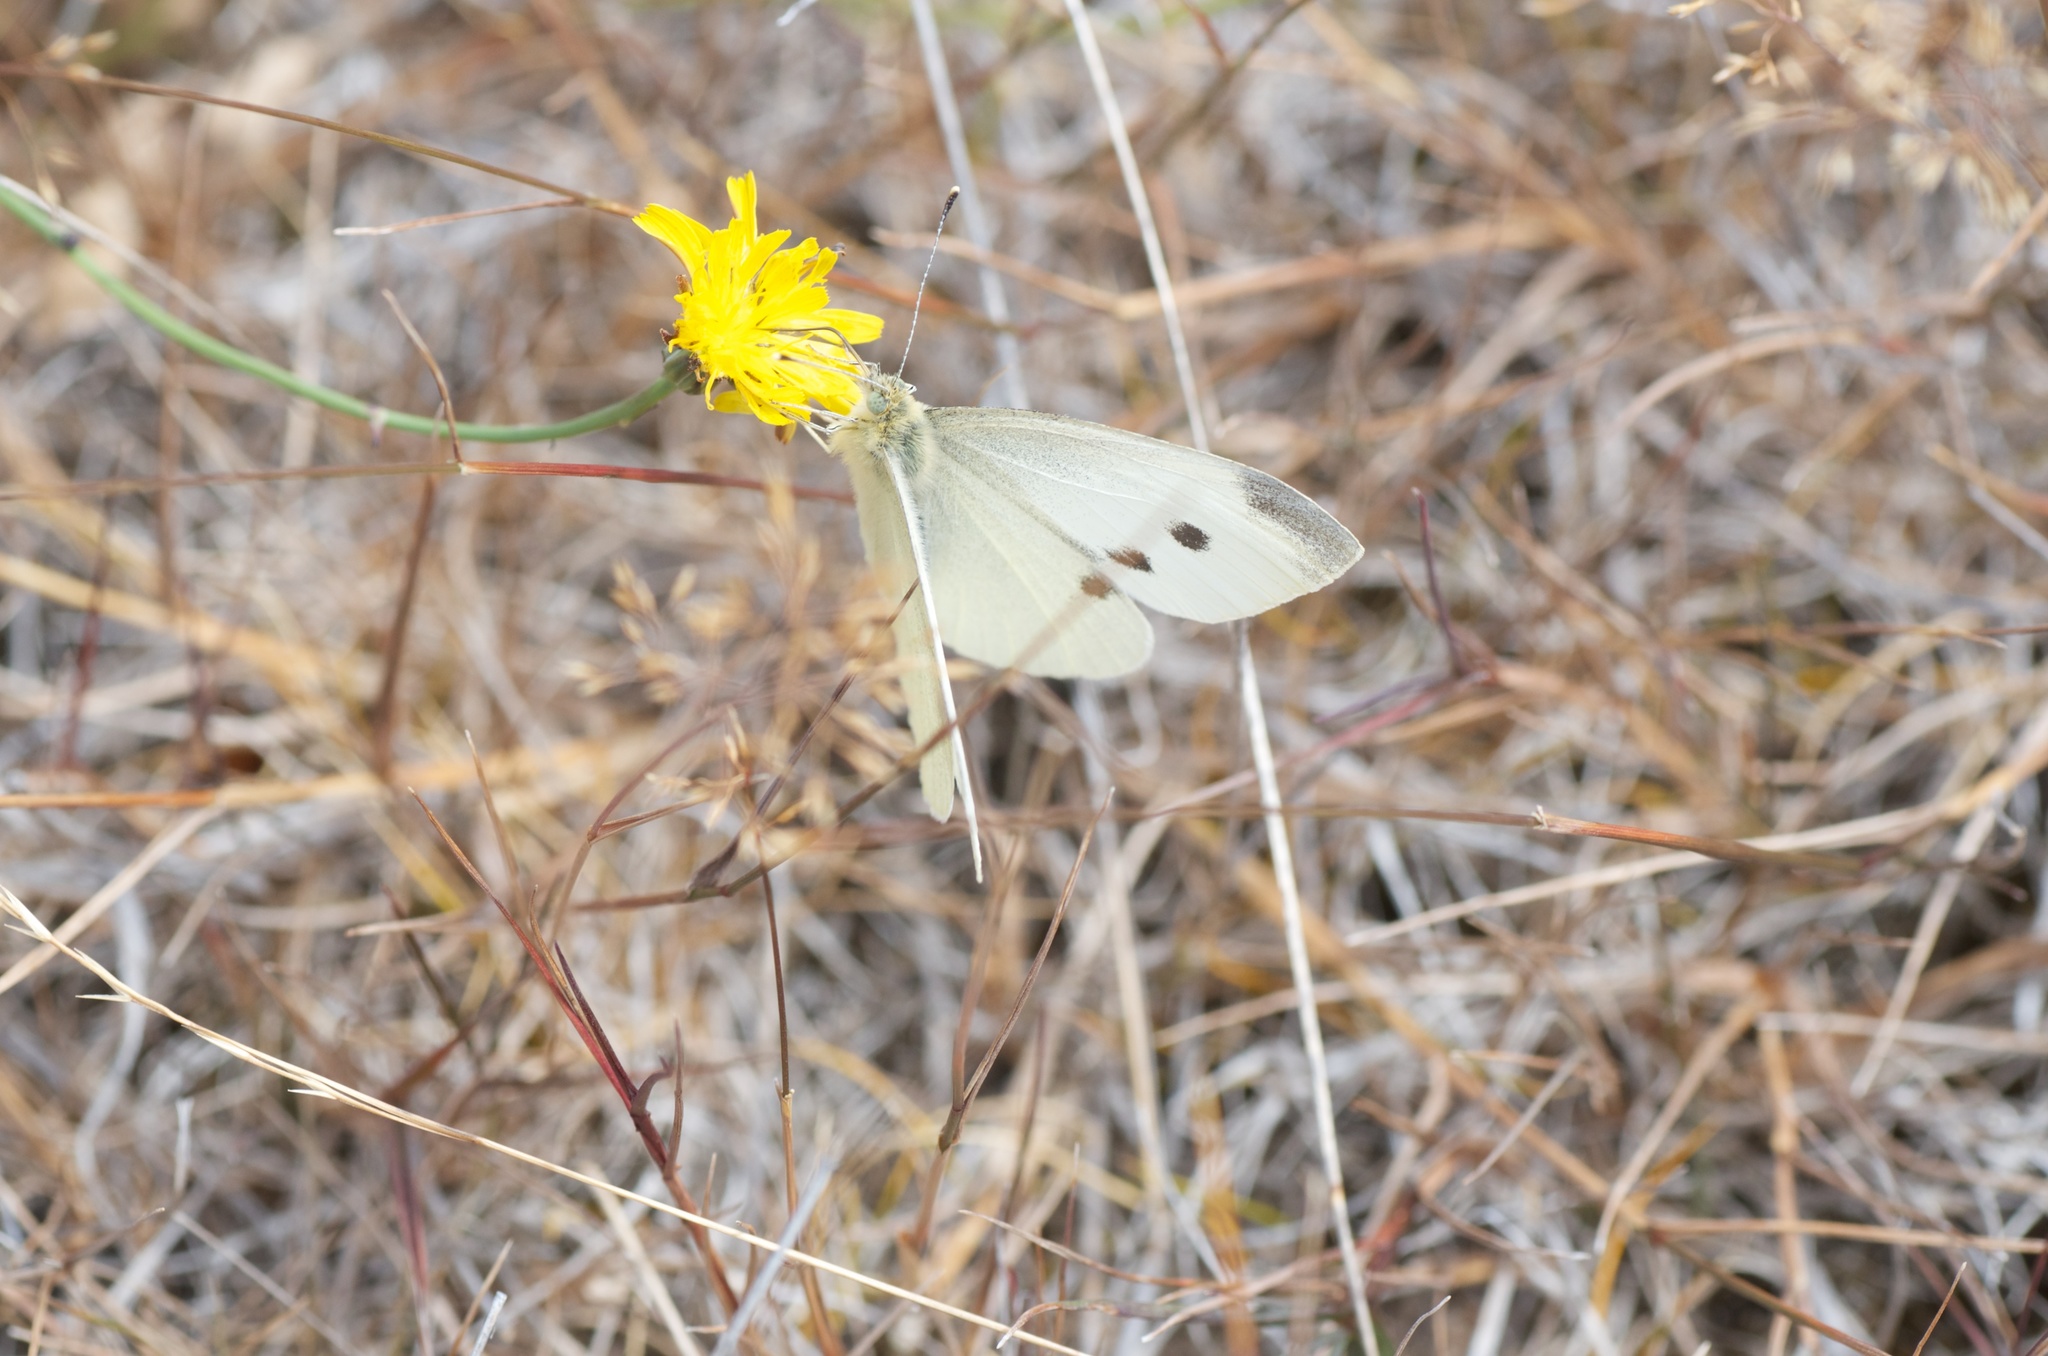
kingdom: Animalia
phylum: Arthropoda
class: Insecta
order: Lepidoptera
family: Pieridae
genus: Pieris
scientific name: Pieris rapae
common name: Small white
